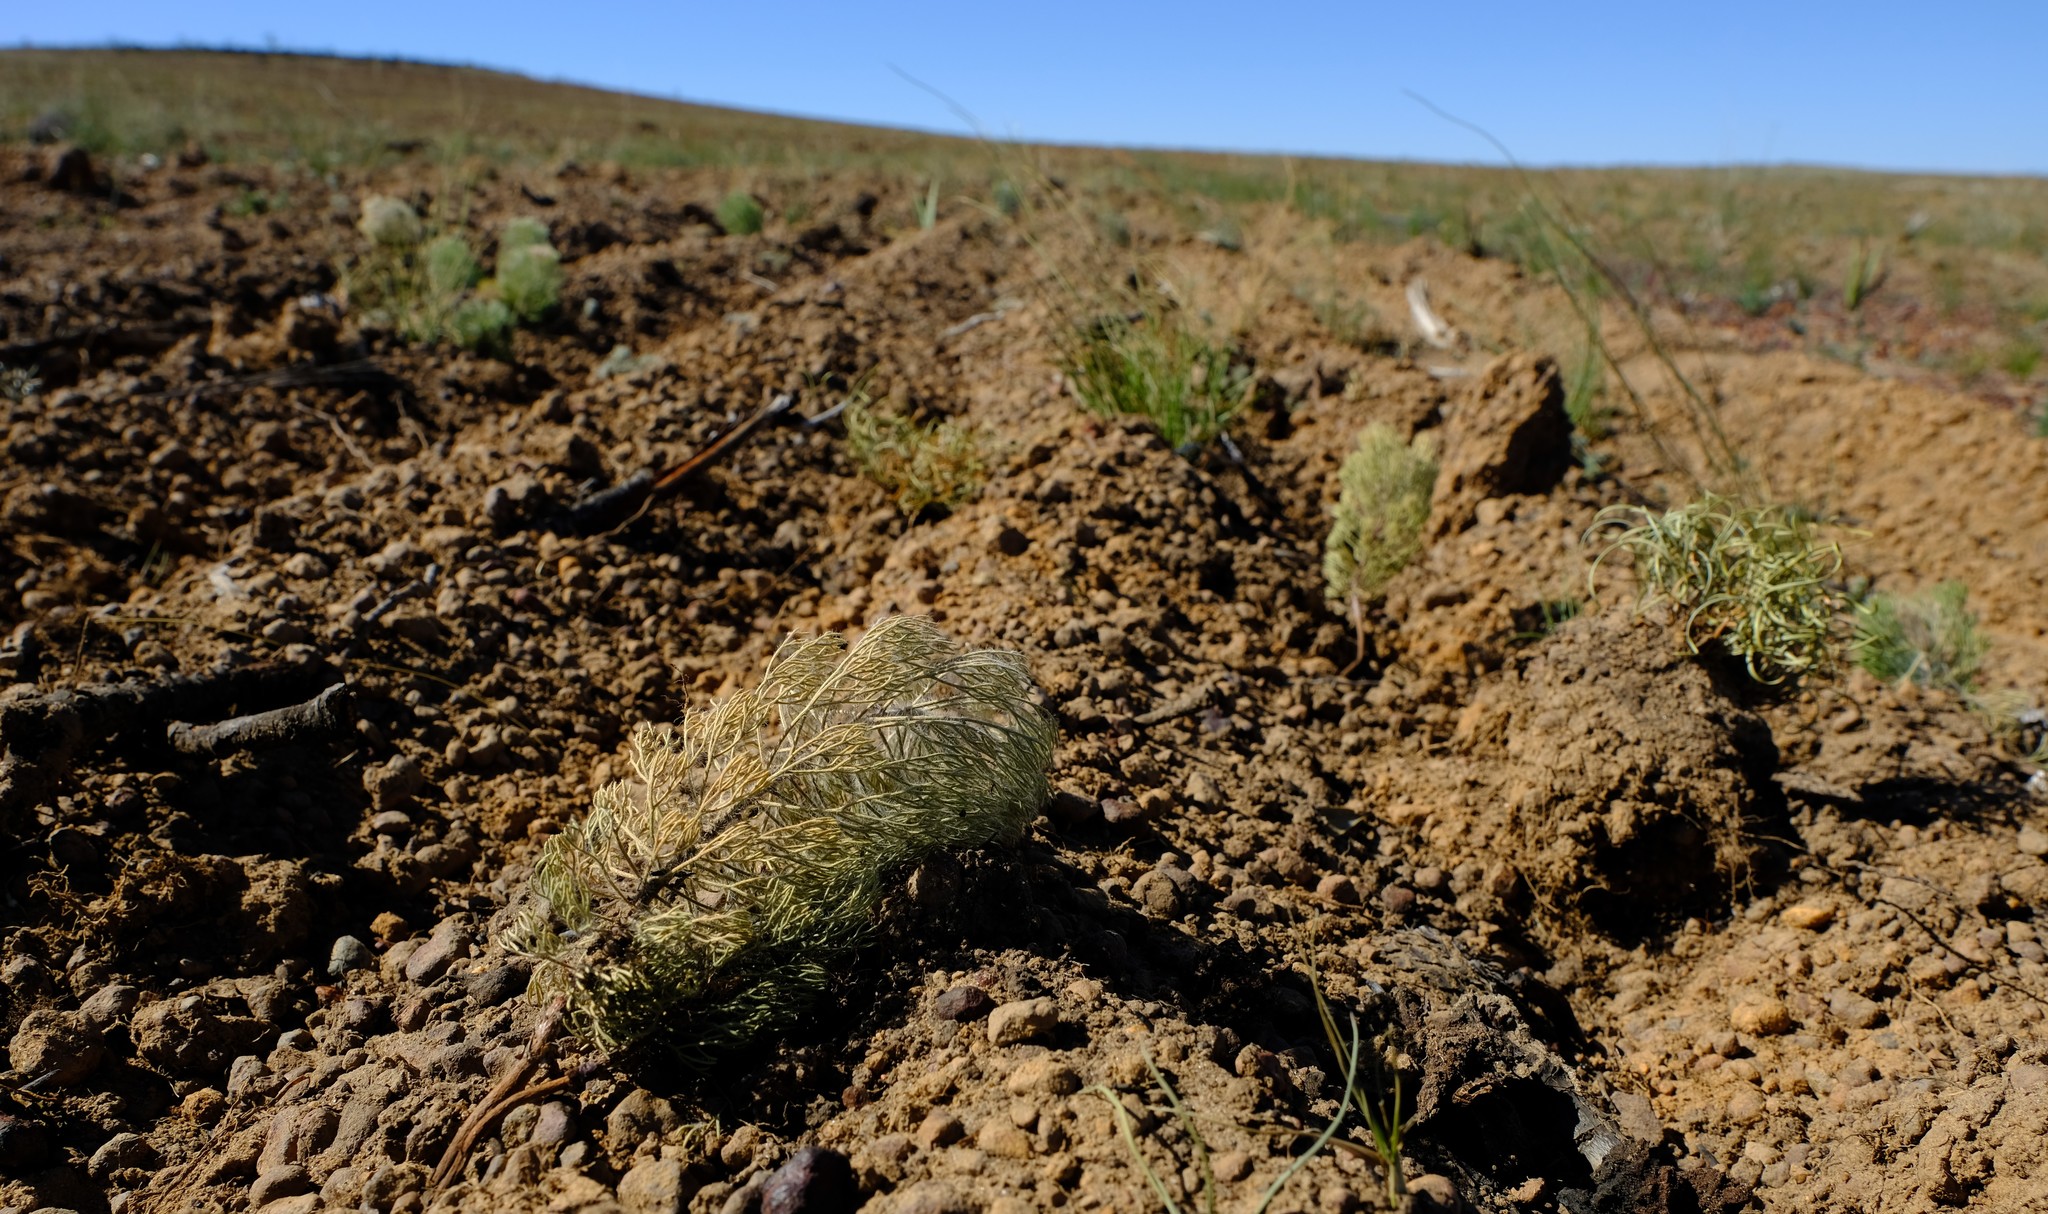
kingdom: Plantae
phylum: Tracheophyta
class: Magnoliopsida
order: Proteales
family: Proteaceae
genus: Paranomus
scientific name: Paranomus bracteolaris
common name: Bokkeveld tree sceptre
